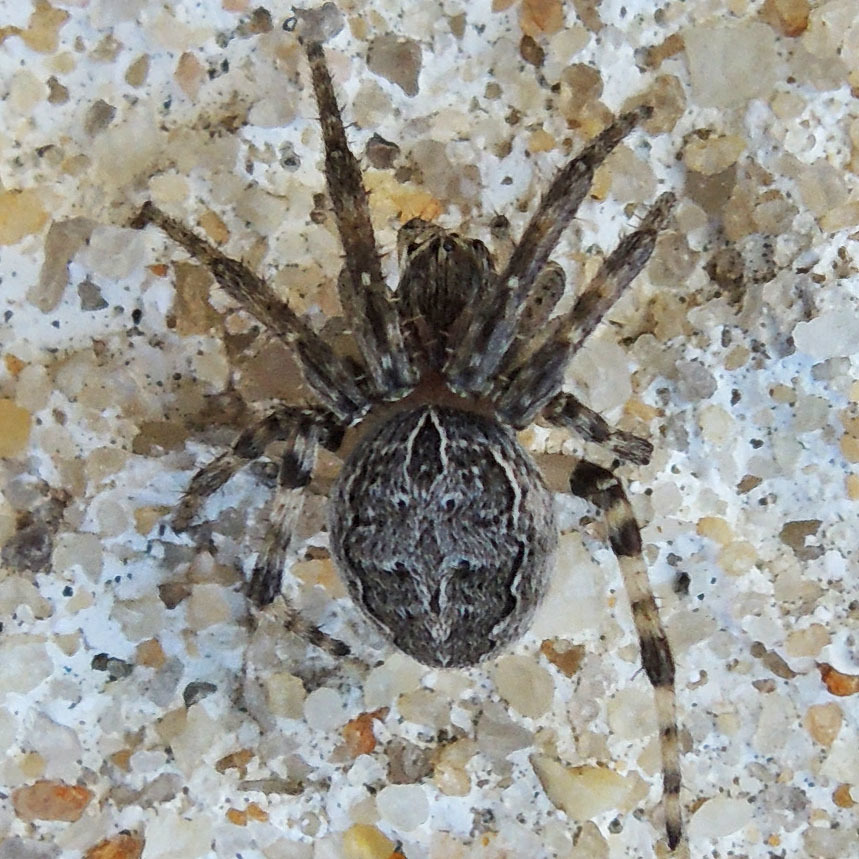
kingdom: Animalia
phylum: Arthropoda
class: Arachnida
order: Araneae
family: Araneidae
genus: Larinioides
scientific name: Larinioides sclopetarius
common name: Bridge orbweaver
